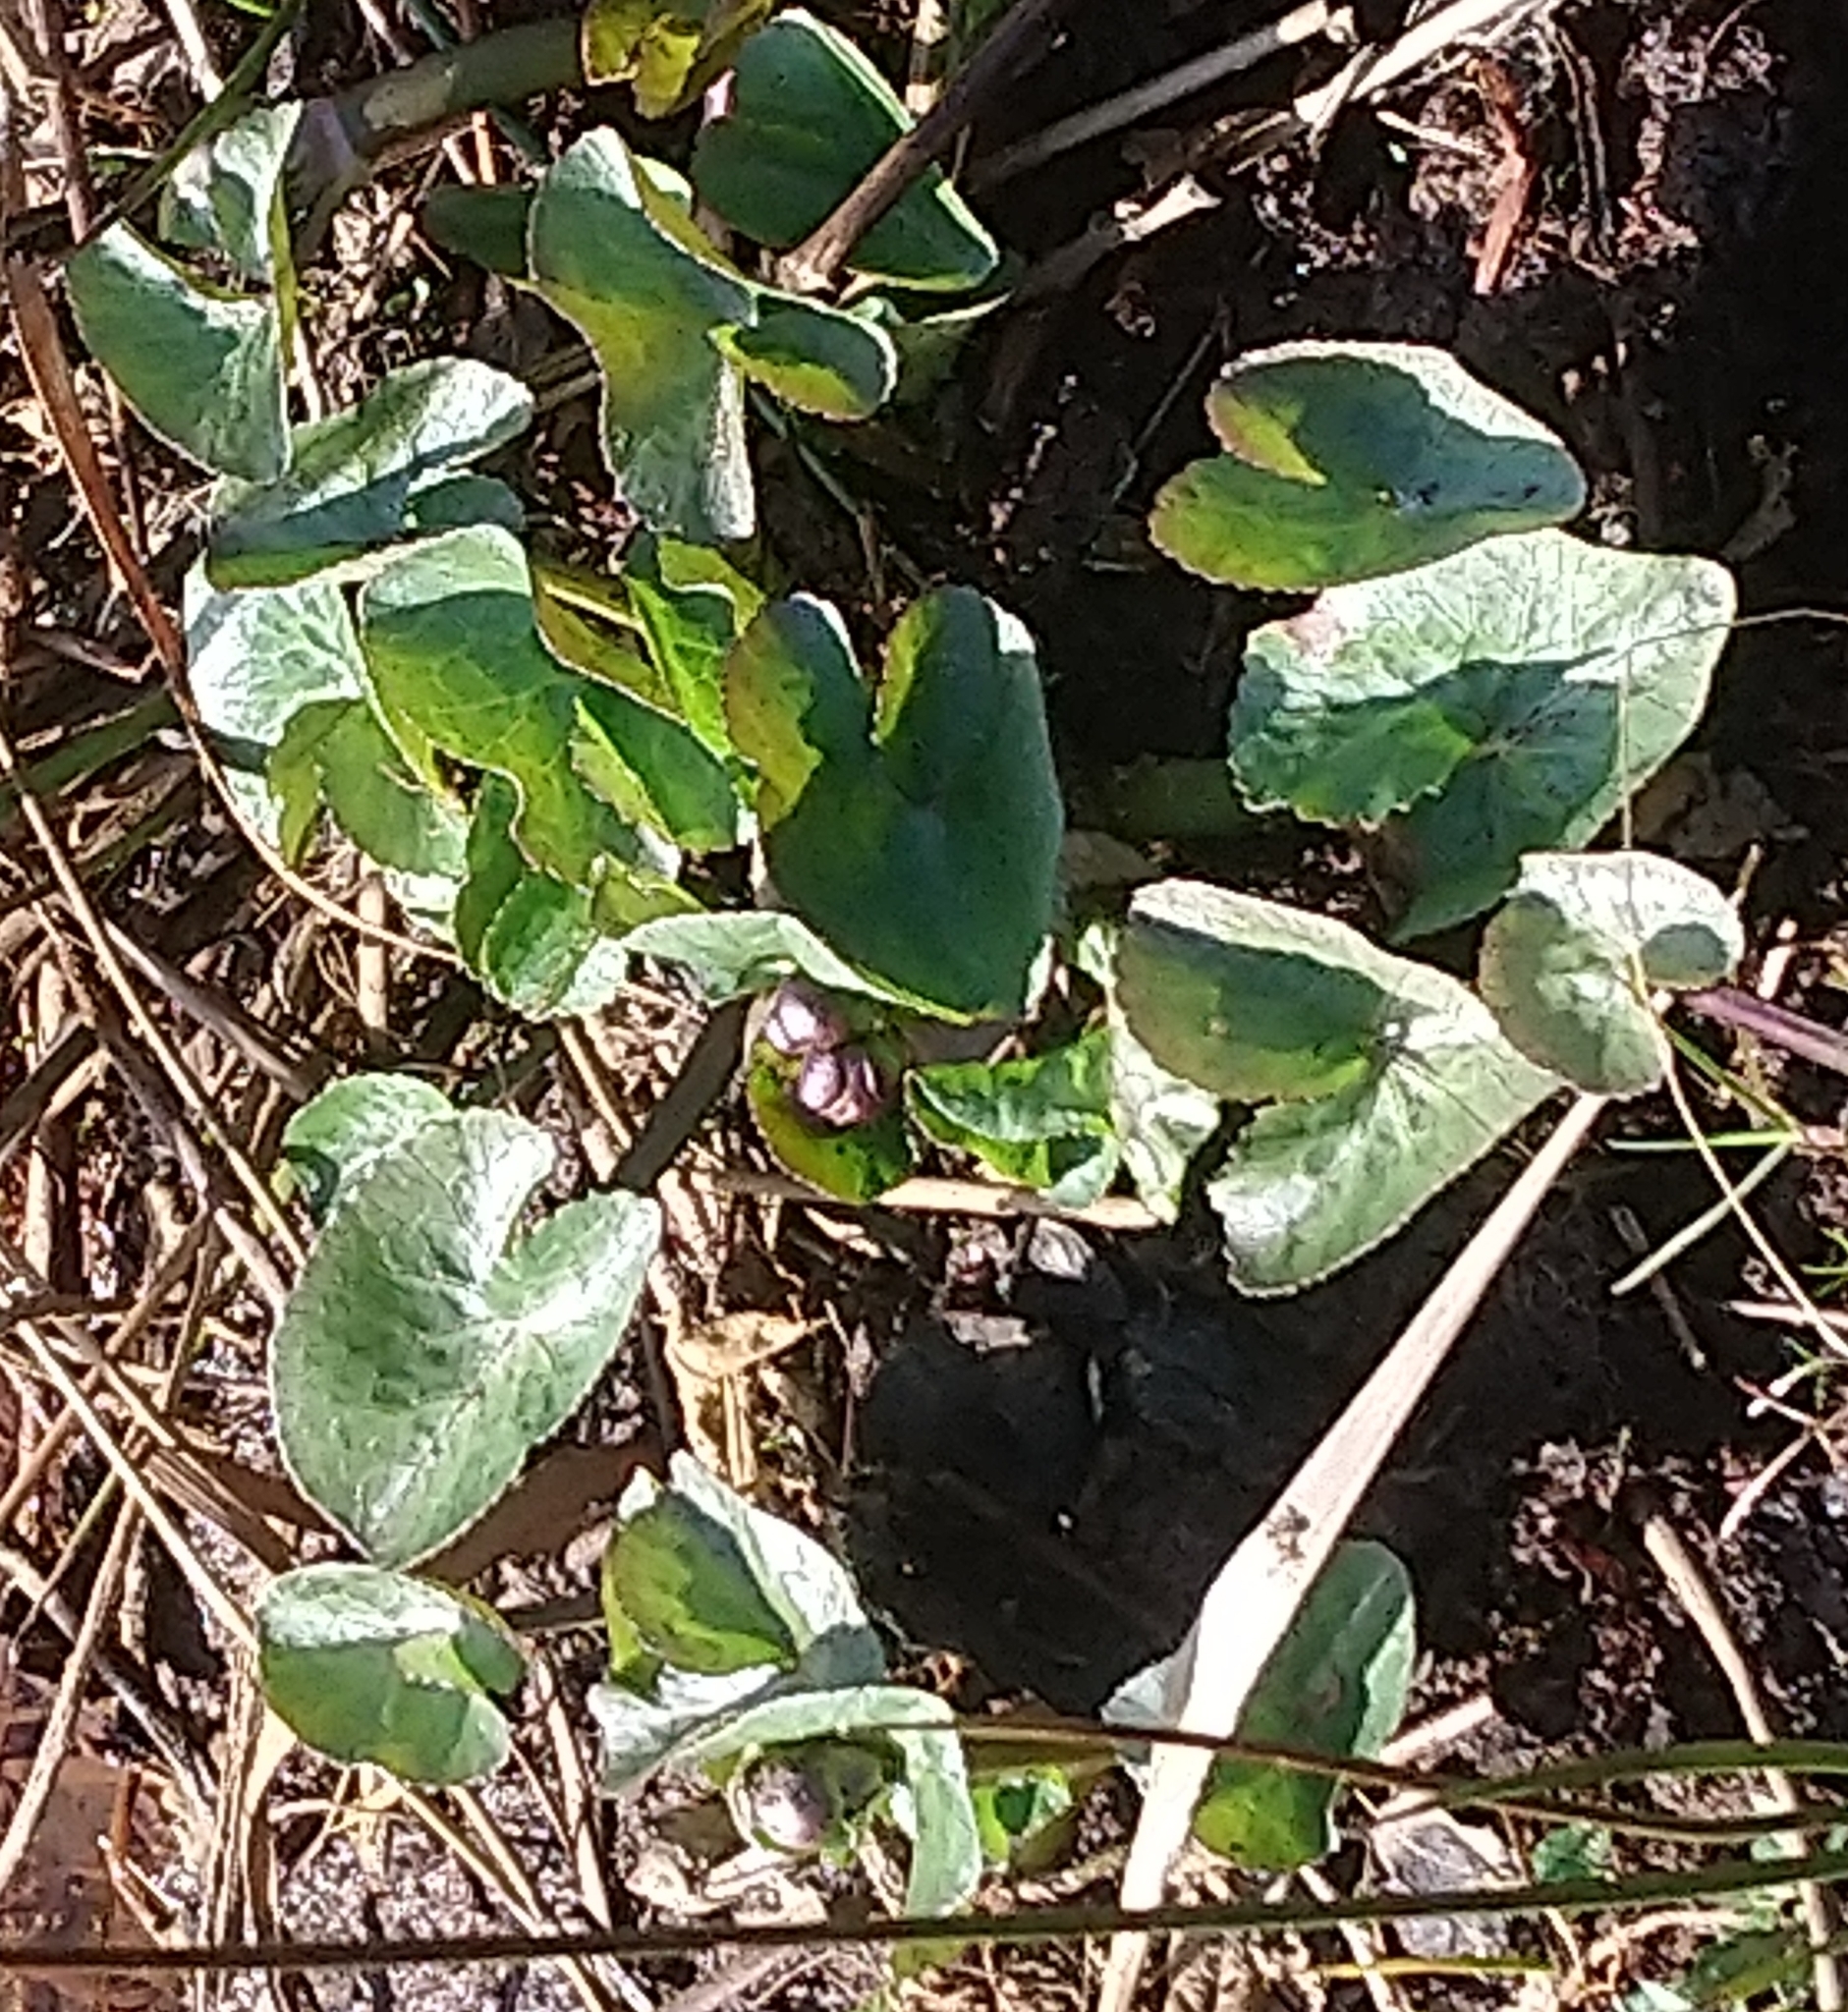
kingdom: Plantae
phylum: Tracheophyta
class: Magnoliopsida
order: Ranunculales
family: Ranunculaceae
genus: Caltha
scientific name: Caltha palustris
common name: Marsh marigold
